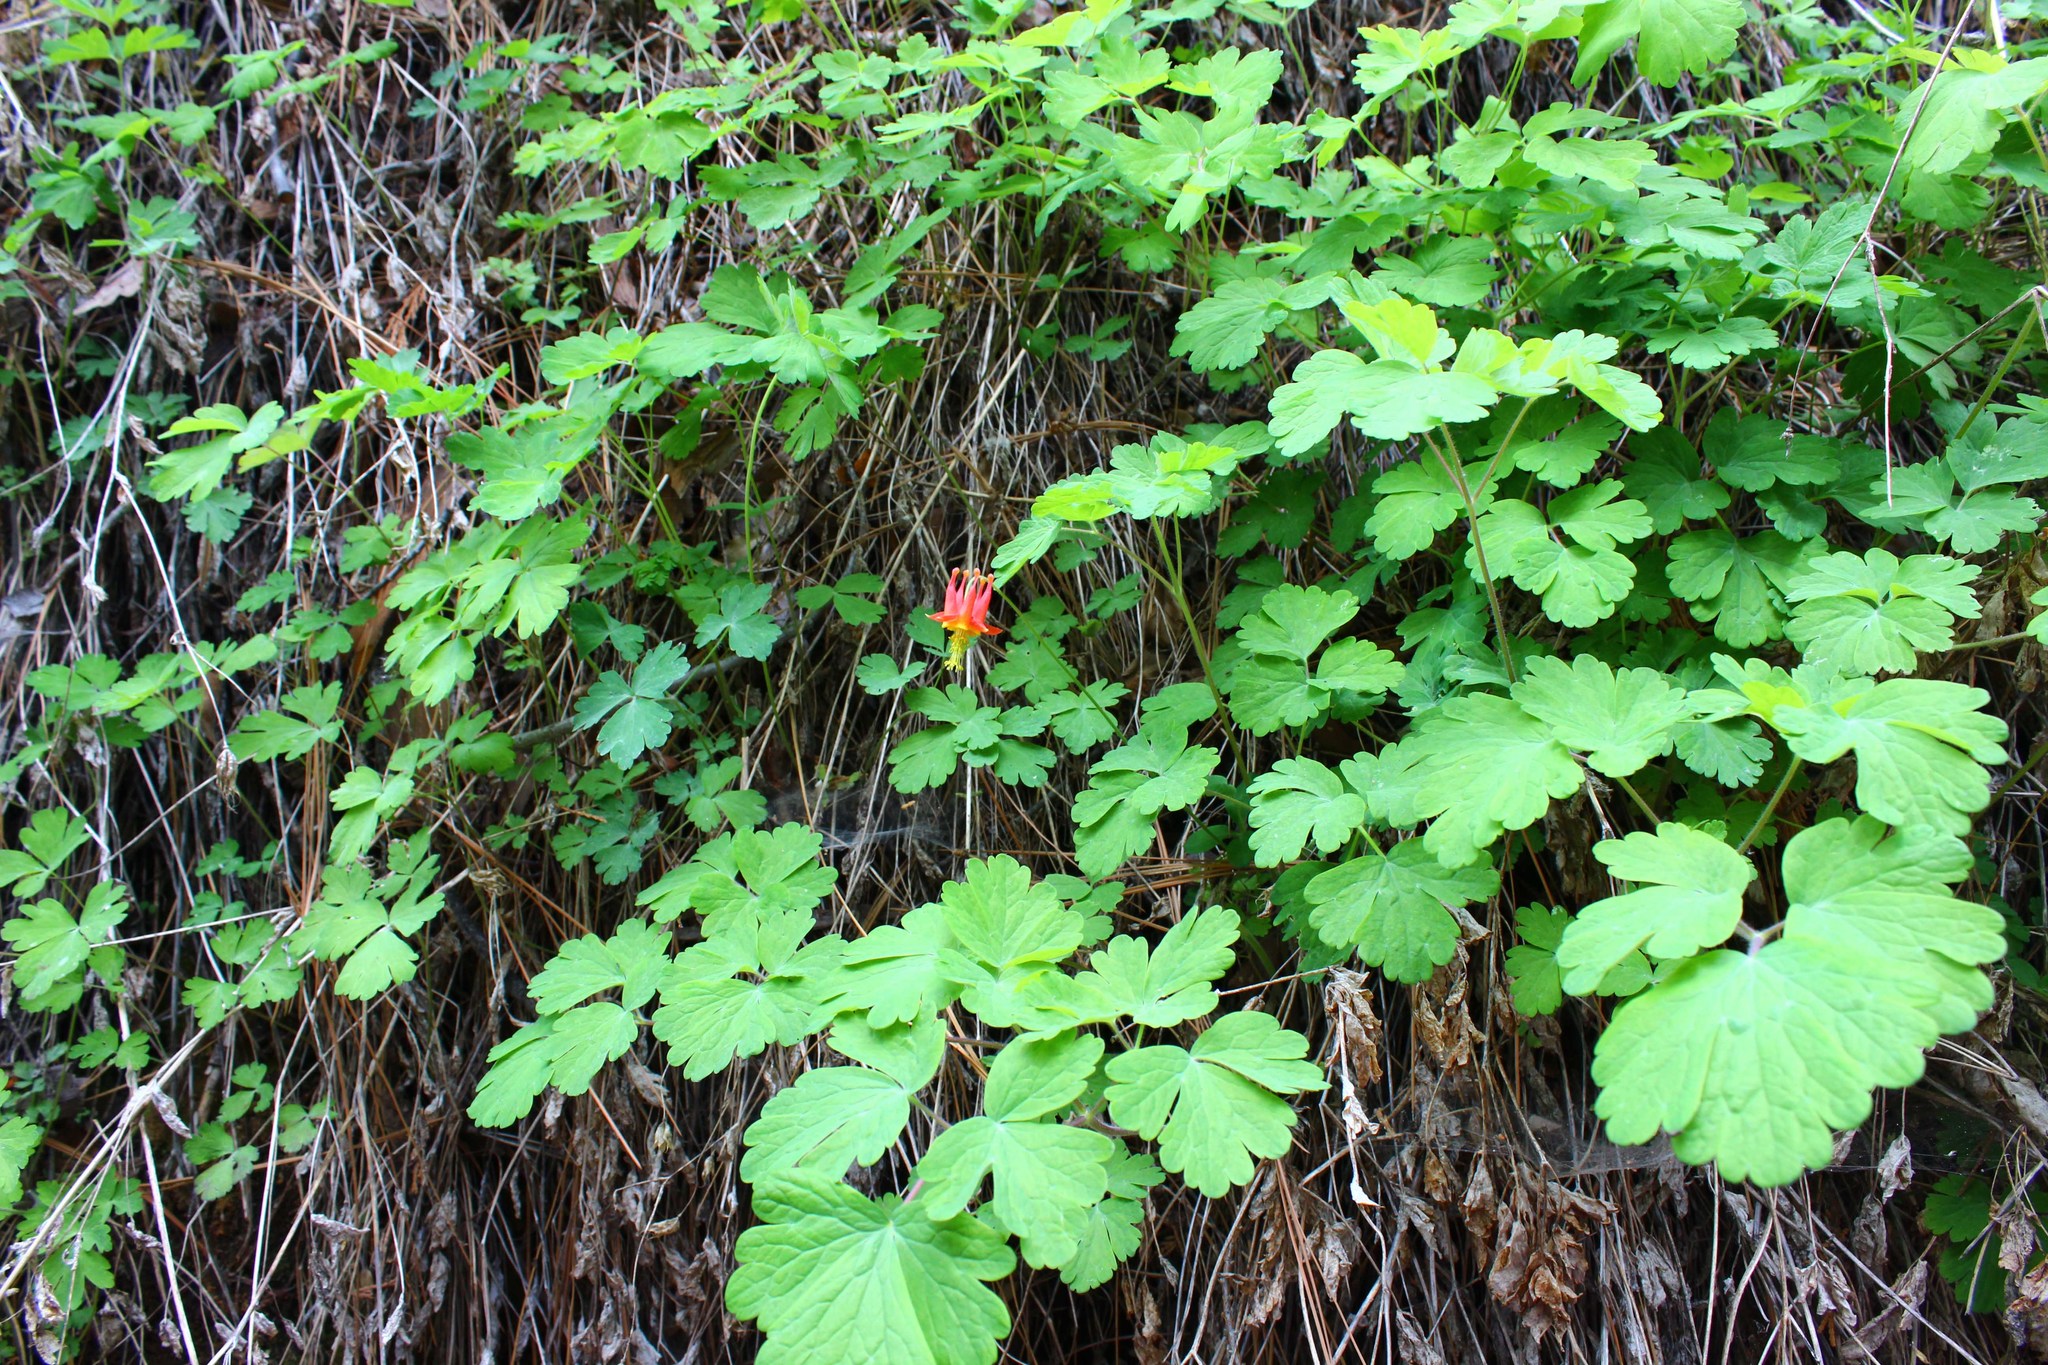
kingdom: Plantae
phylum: Tracheophyta
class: Magnoliopsida
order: Ranunculales
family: Ranunculaceae
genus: Aquilegia
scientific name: Aquilegia formosa
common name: Sitka columbine
